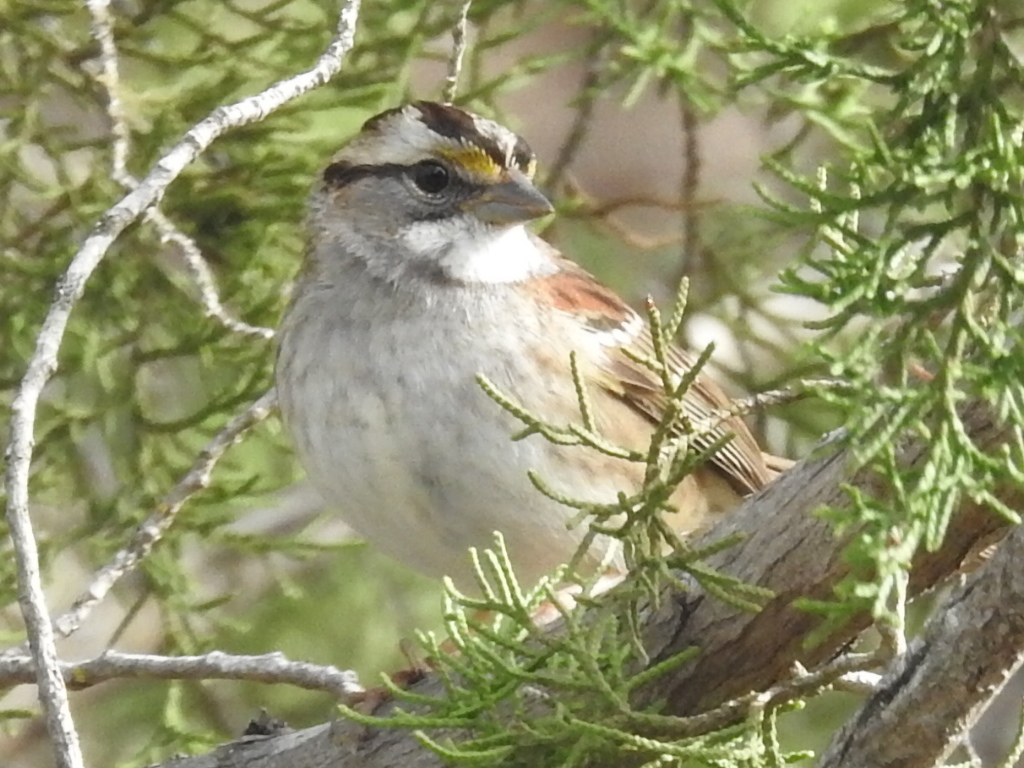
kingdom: Animalia
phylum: Chordata
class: Aves
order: Passeriformes
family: Passerellidae
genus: Zonotrichia
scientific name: Zonotrichia albicollis
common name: White-throated sparrow
